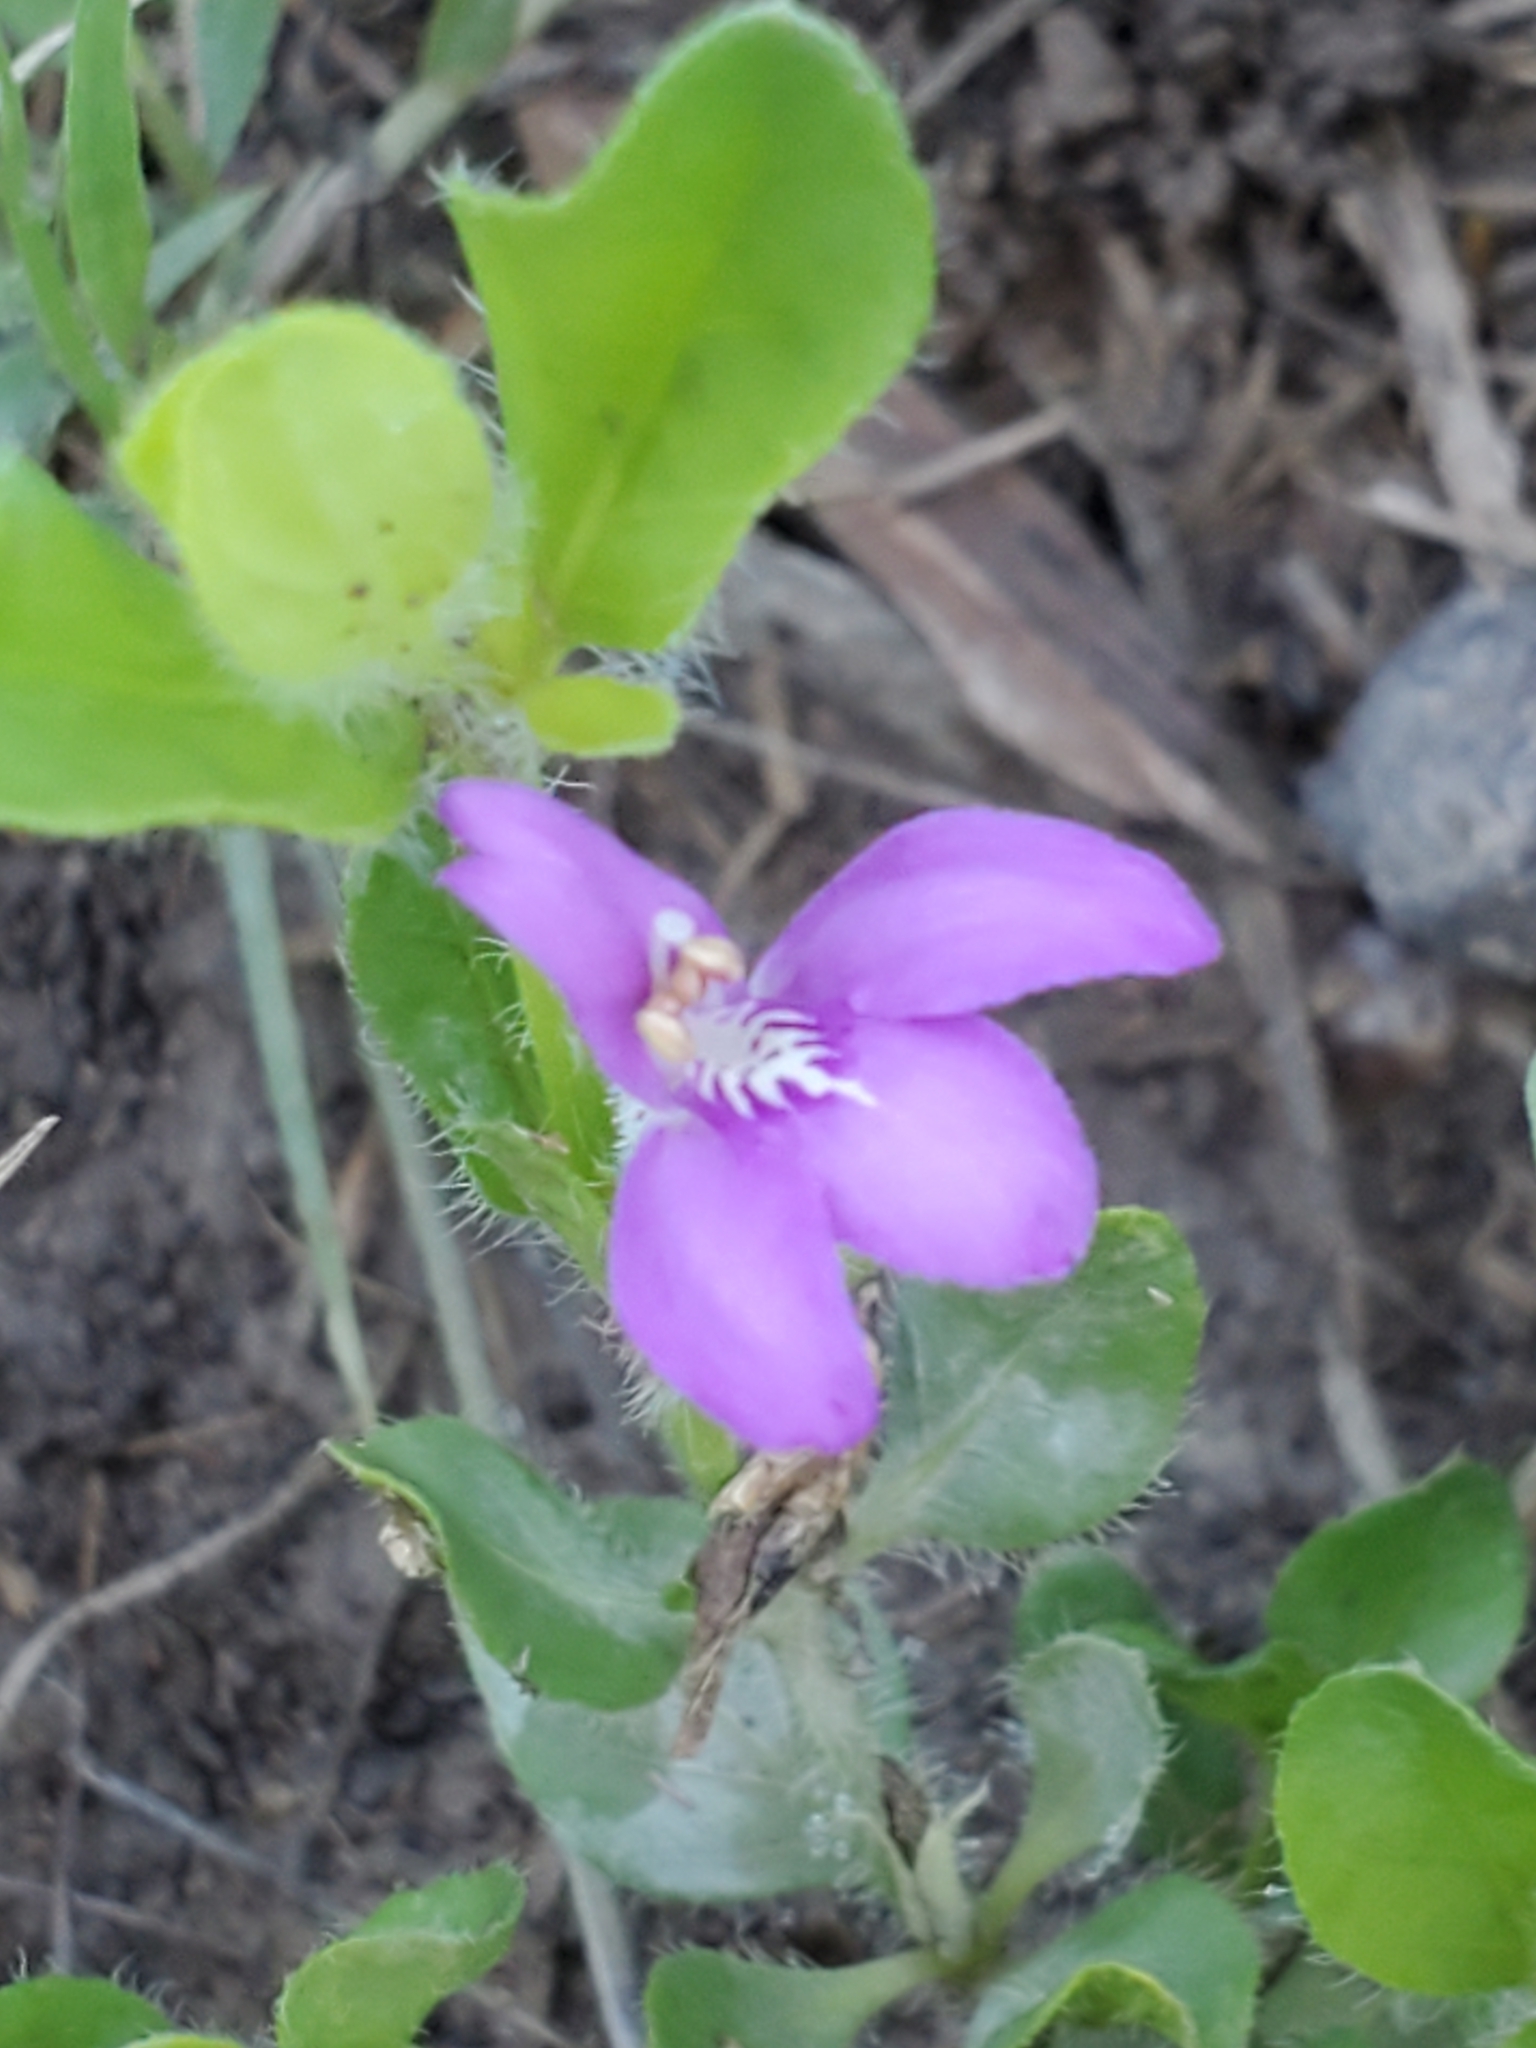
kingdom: Plantae
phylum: Tracheophyta
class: Magnoliopsida
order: Lamiales
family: Acanthaceae
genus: Justicia
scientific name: Justicia pilosella
